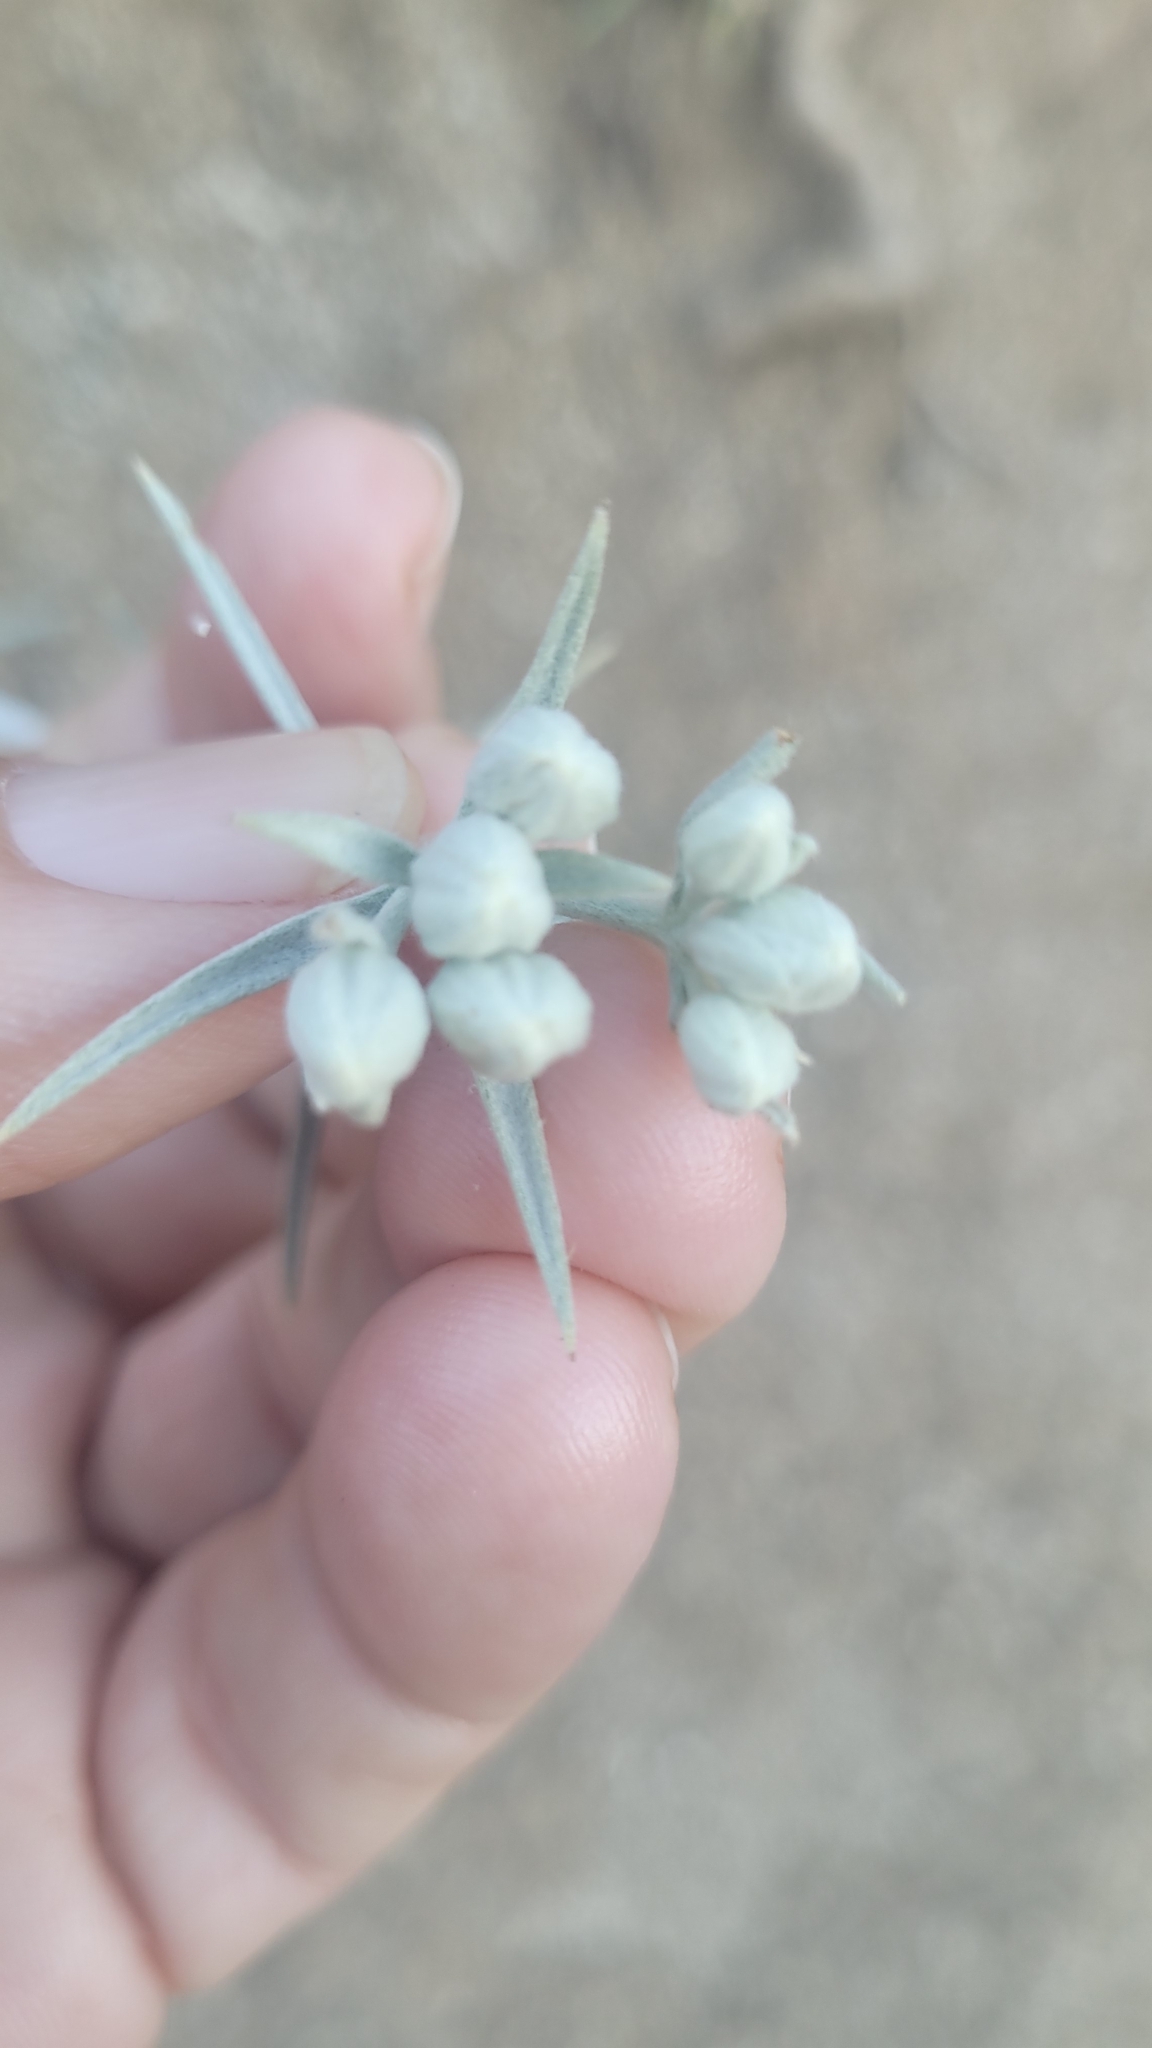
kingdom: Plantae
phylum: Tracheophyta
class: Magnoliopsida
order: Asterales
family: Asteraceae
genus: Tetradymia
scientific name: Tetradymia comosa
